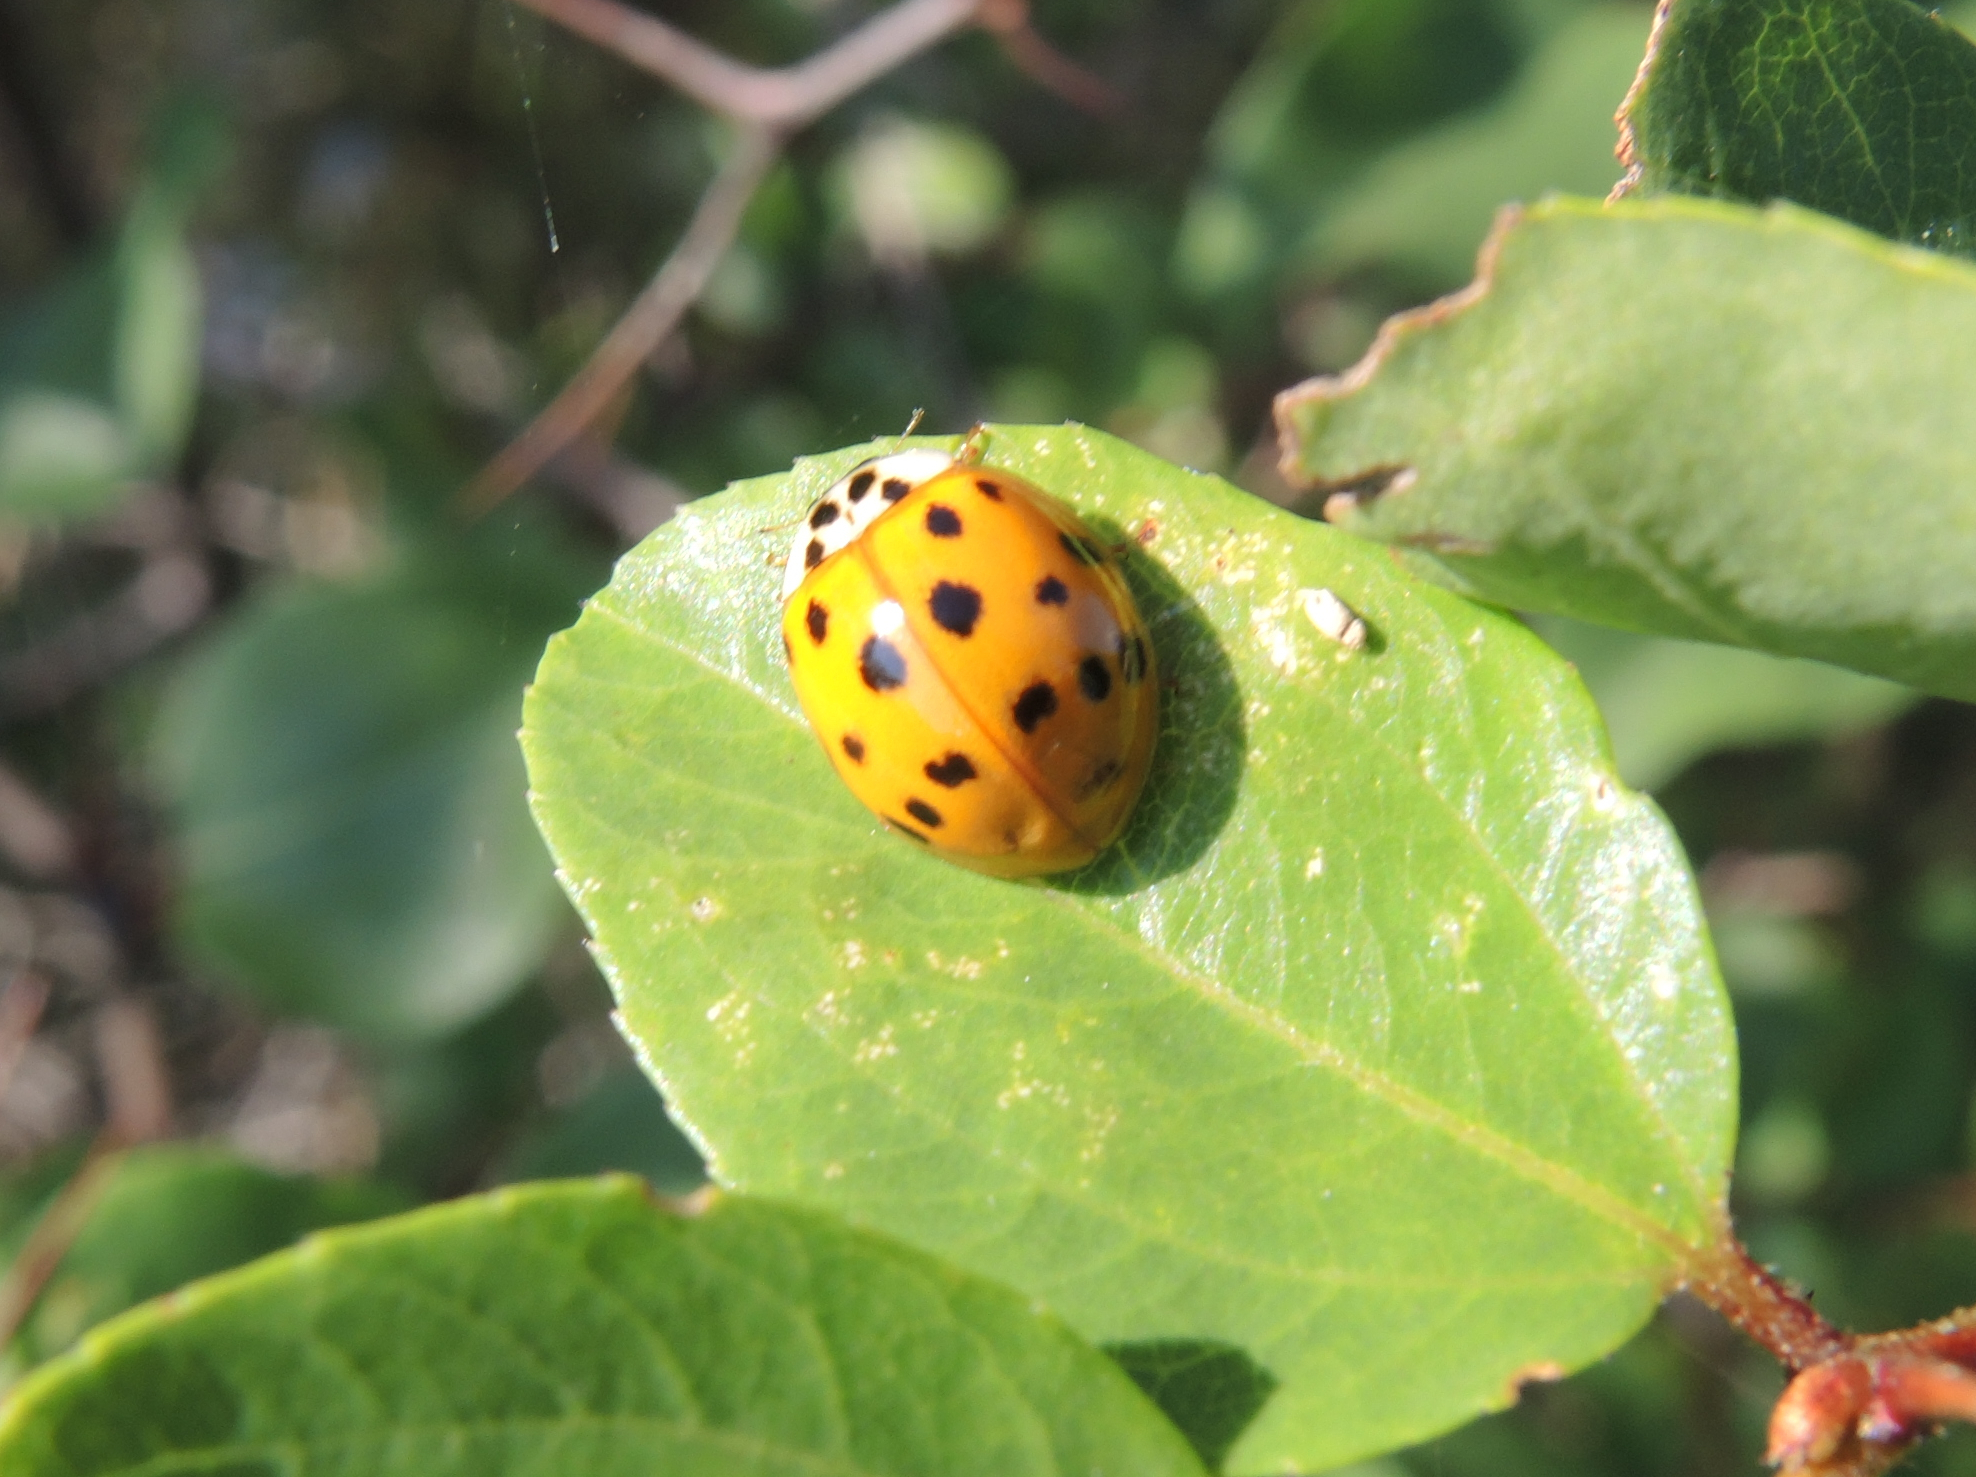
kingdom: Animalia
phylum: Arthropoda
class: Insecta
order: Coleoptera
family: Coccinellidae
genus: Harmonia
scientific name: Harmonia axyridis
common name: Harlequin ladybird
